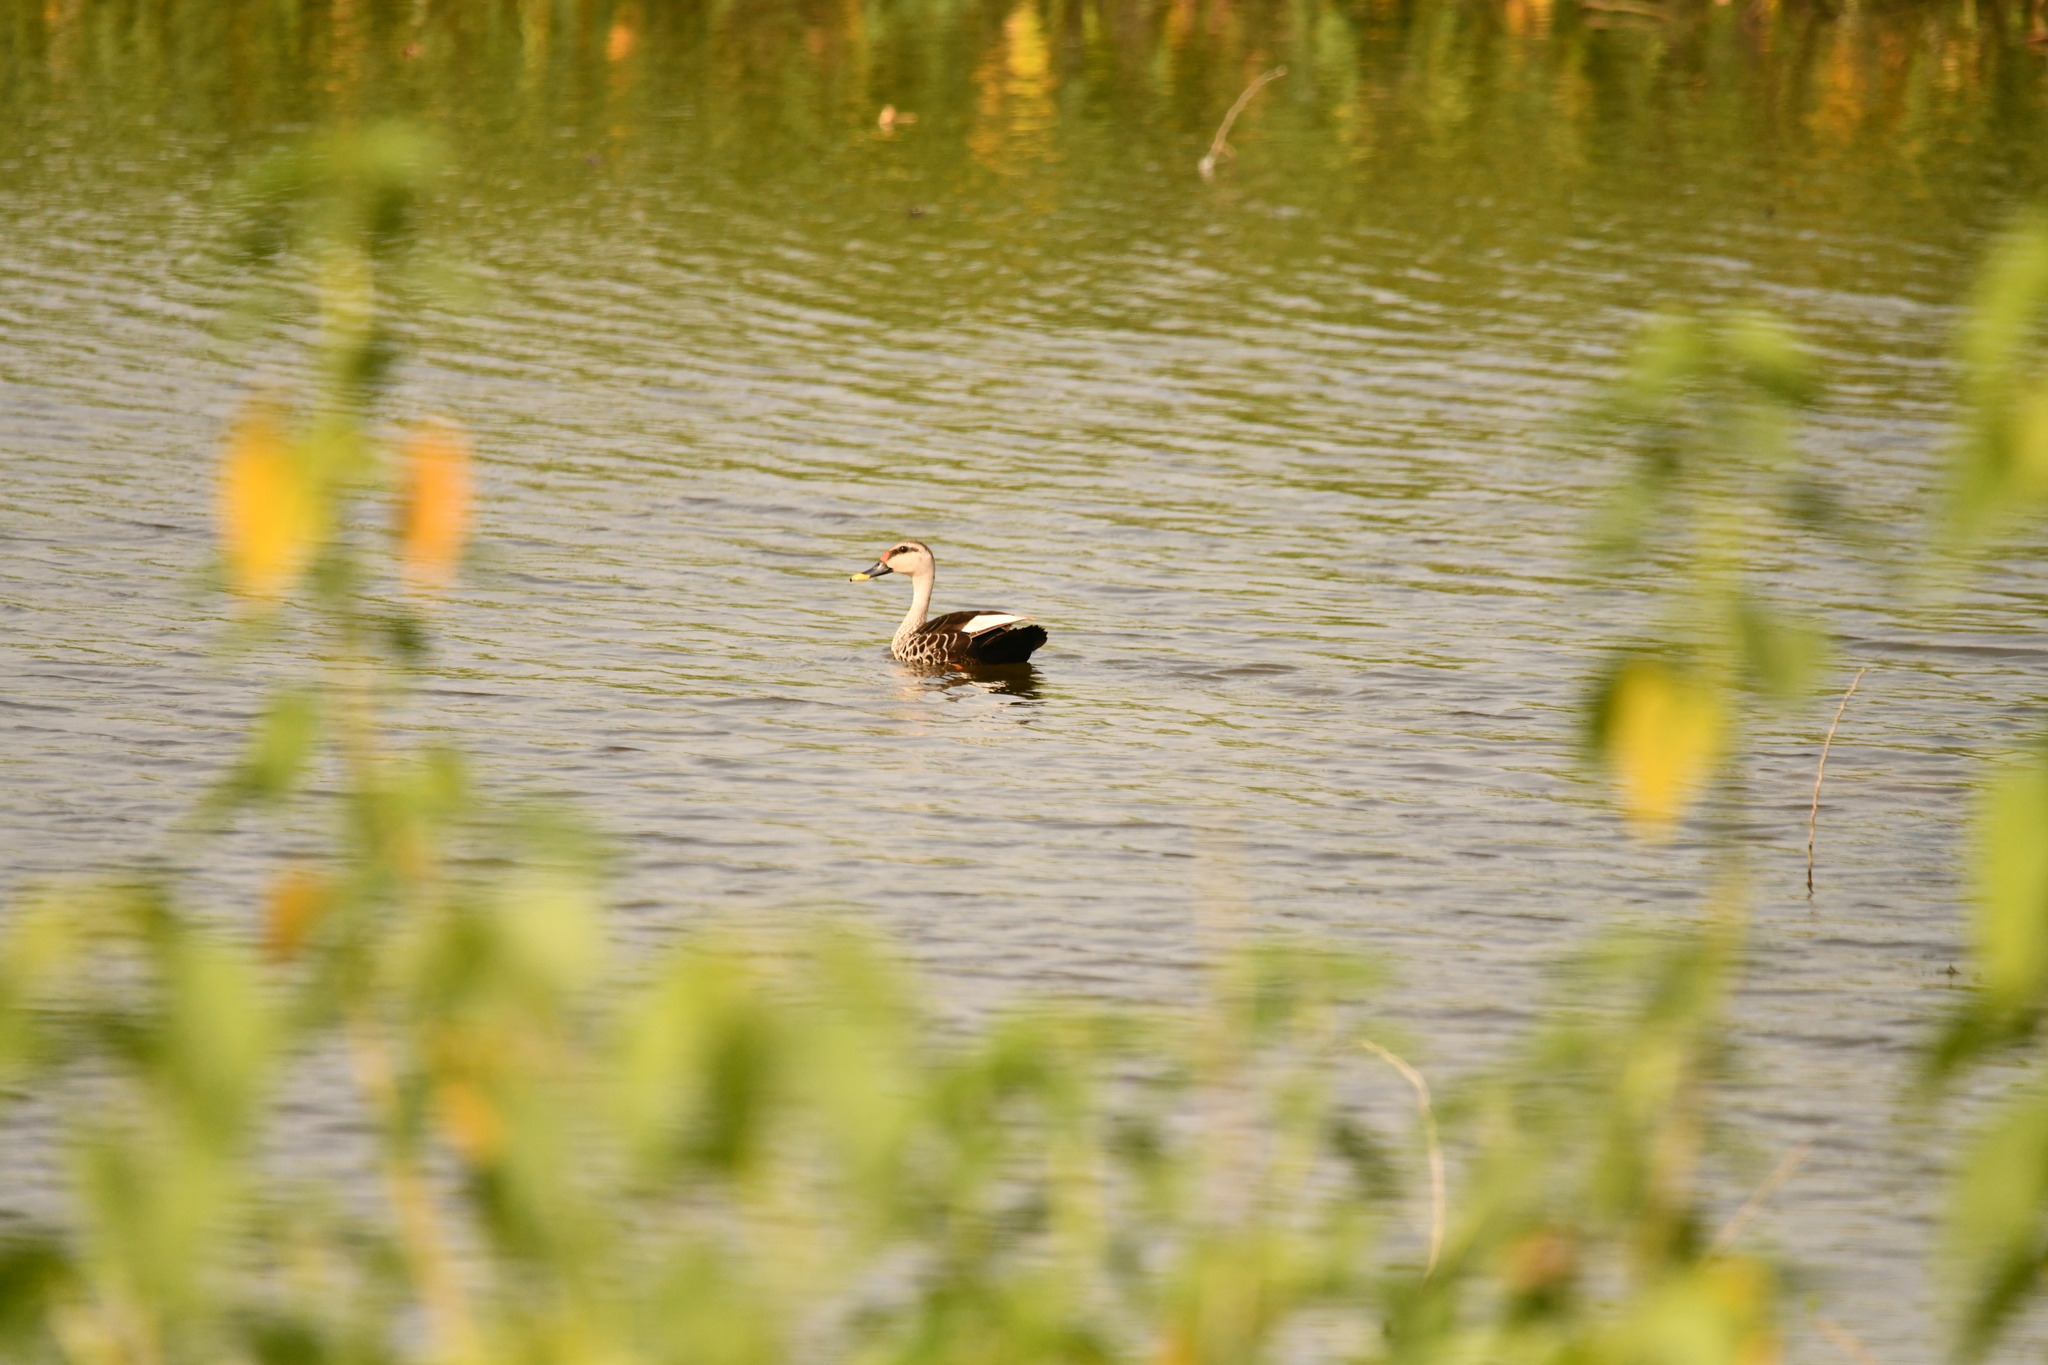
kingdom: Animalia
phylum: Chordata
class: Aves
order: Anseriformes
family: Anatidae
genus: Anas
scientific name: Anas poecilorhyncha
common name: Indian spot-billed duck
